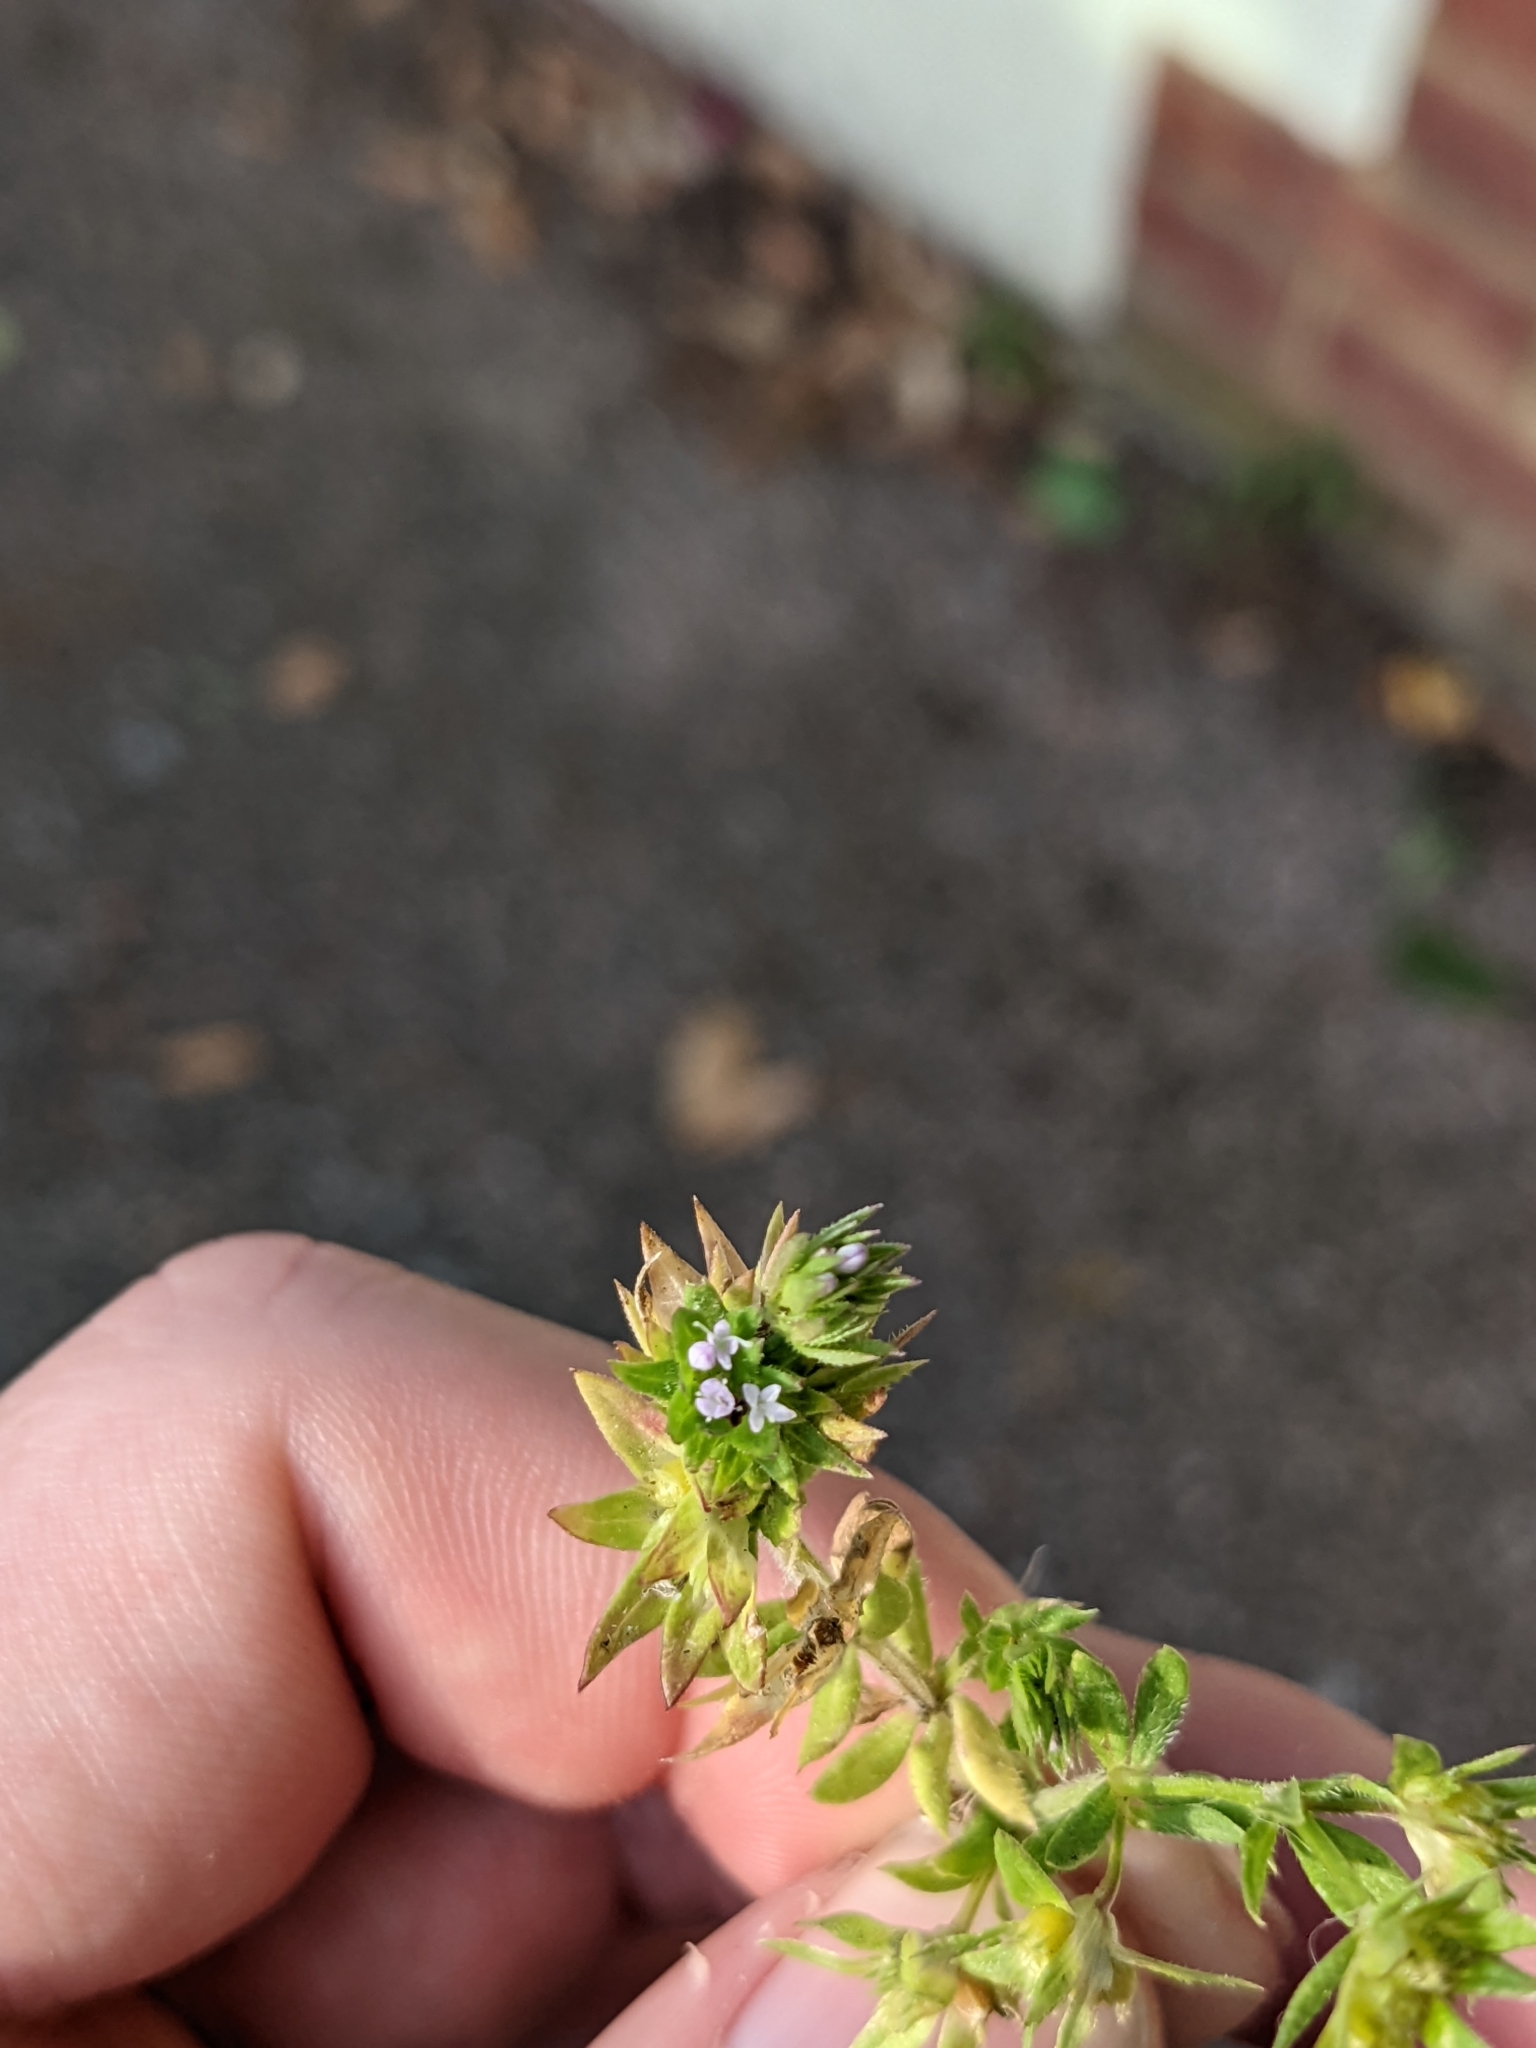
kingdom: Plantae
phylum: Tracheophyta
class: Magnoliopsida
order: Gentianales
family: Rubiaceae
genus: Sherardia
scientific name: Sherardia arvensis
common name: Field madder
